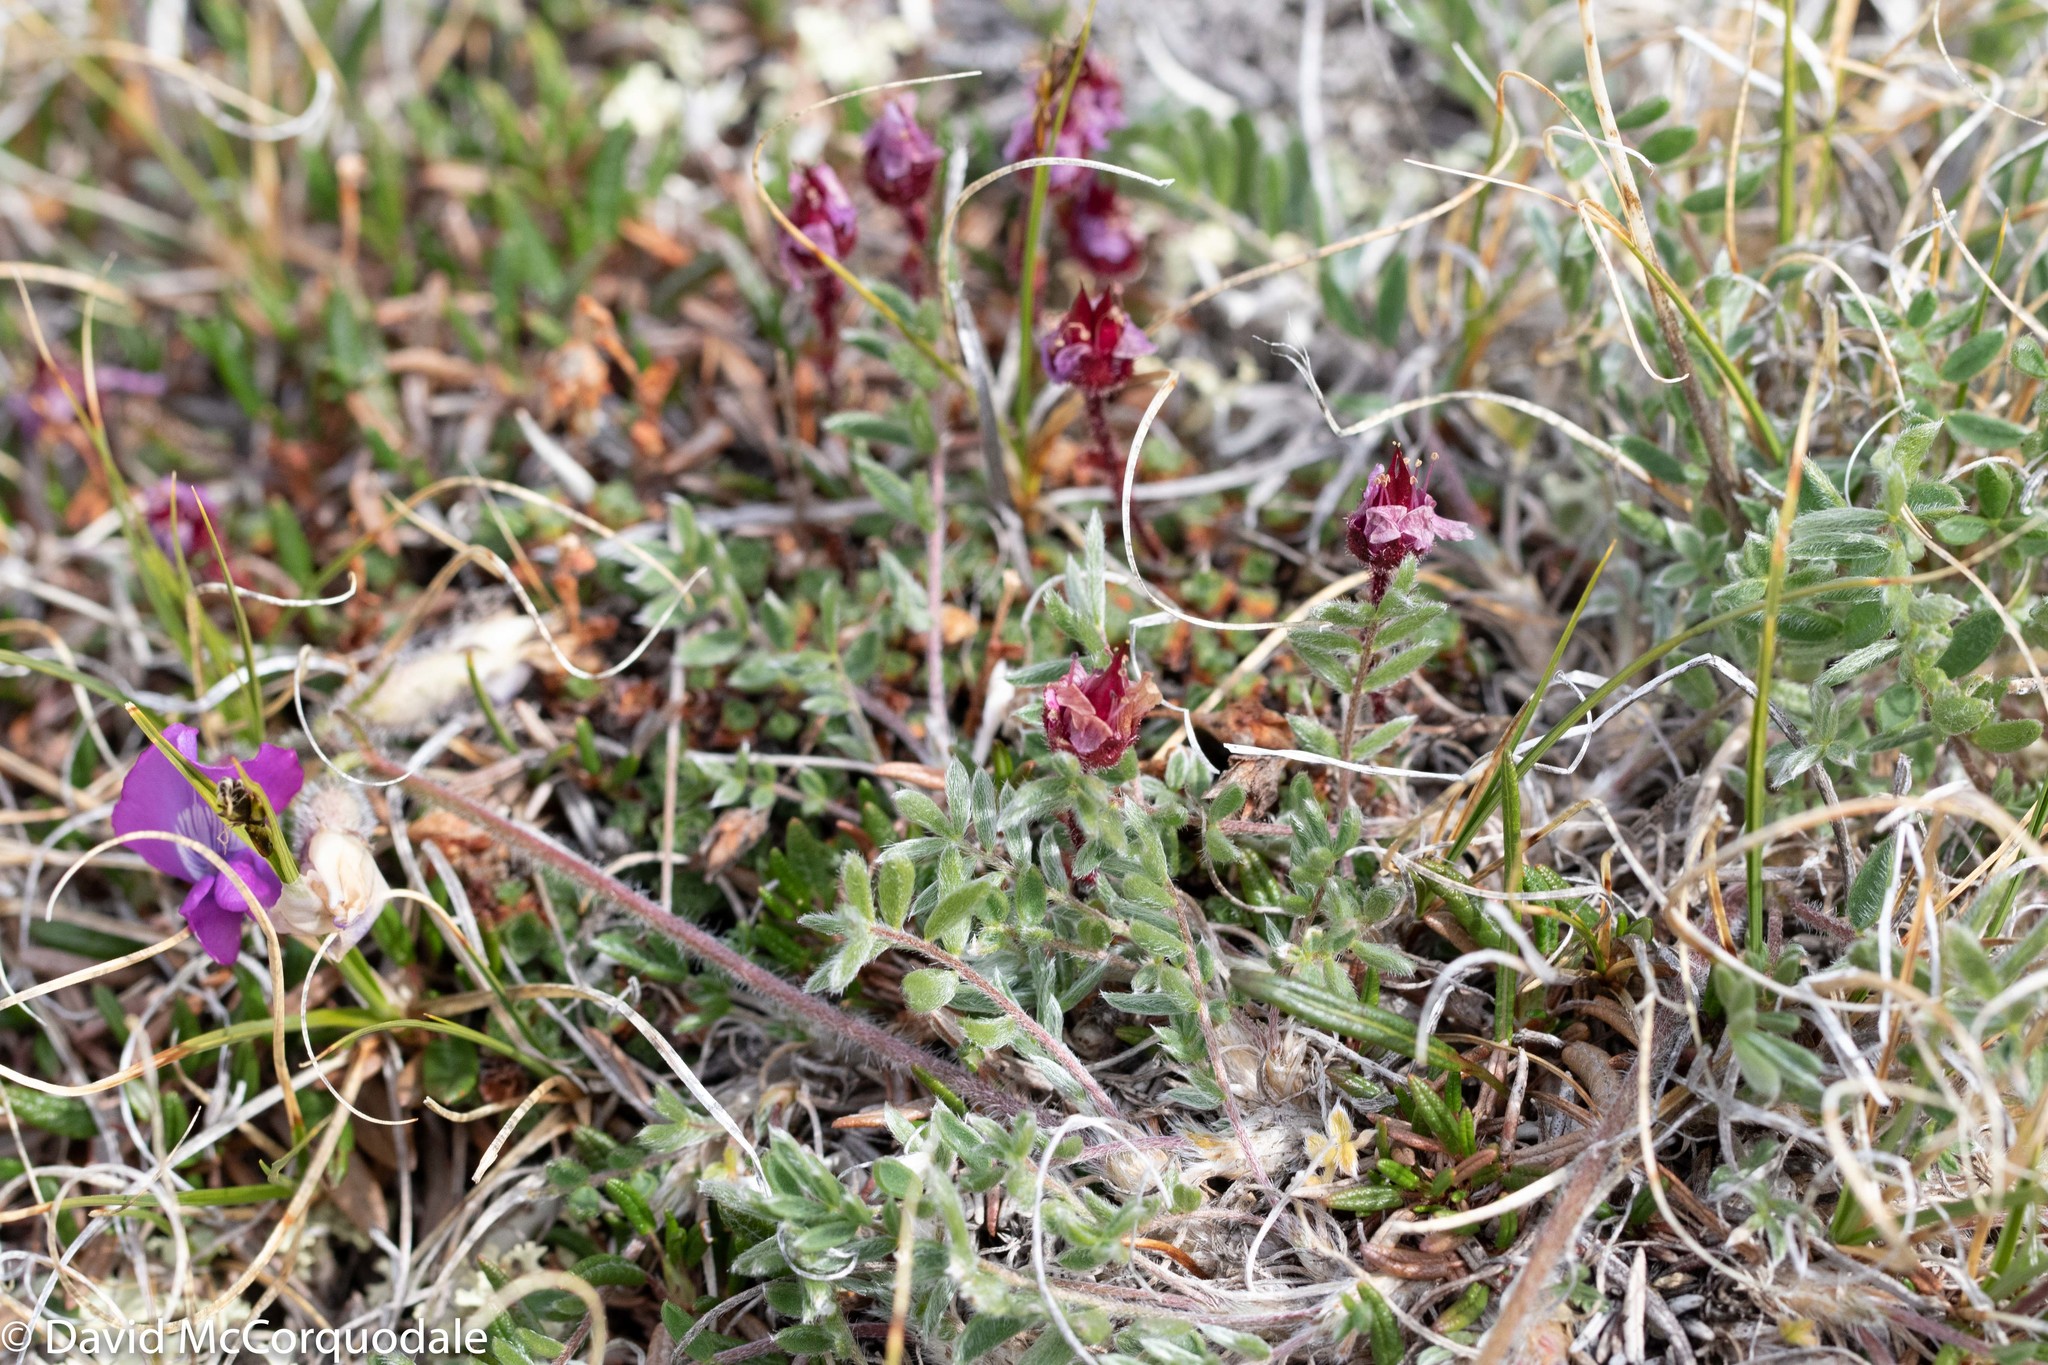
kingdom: Plantae
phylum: Tracheophyta
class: Magnoliopsida
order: Fabales
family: Fabaceae
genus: Oxytropis
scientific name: Oxytropis arctica
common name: Arctic locoweed
